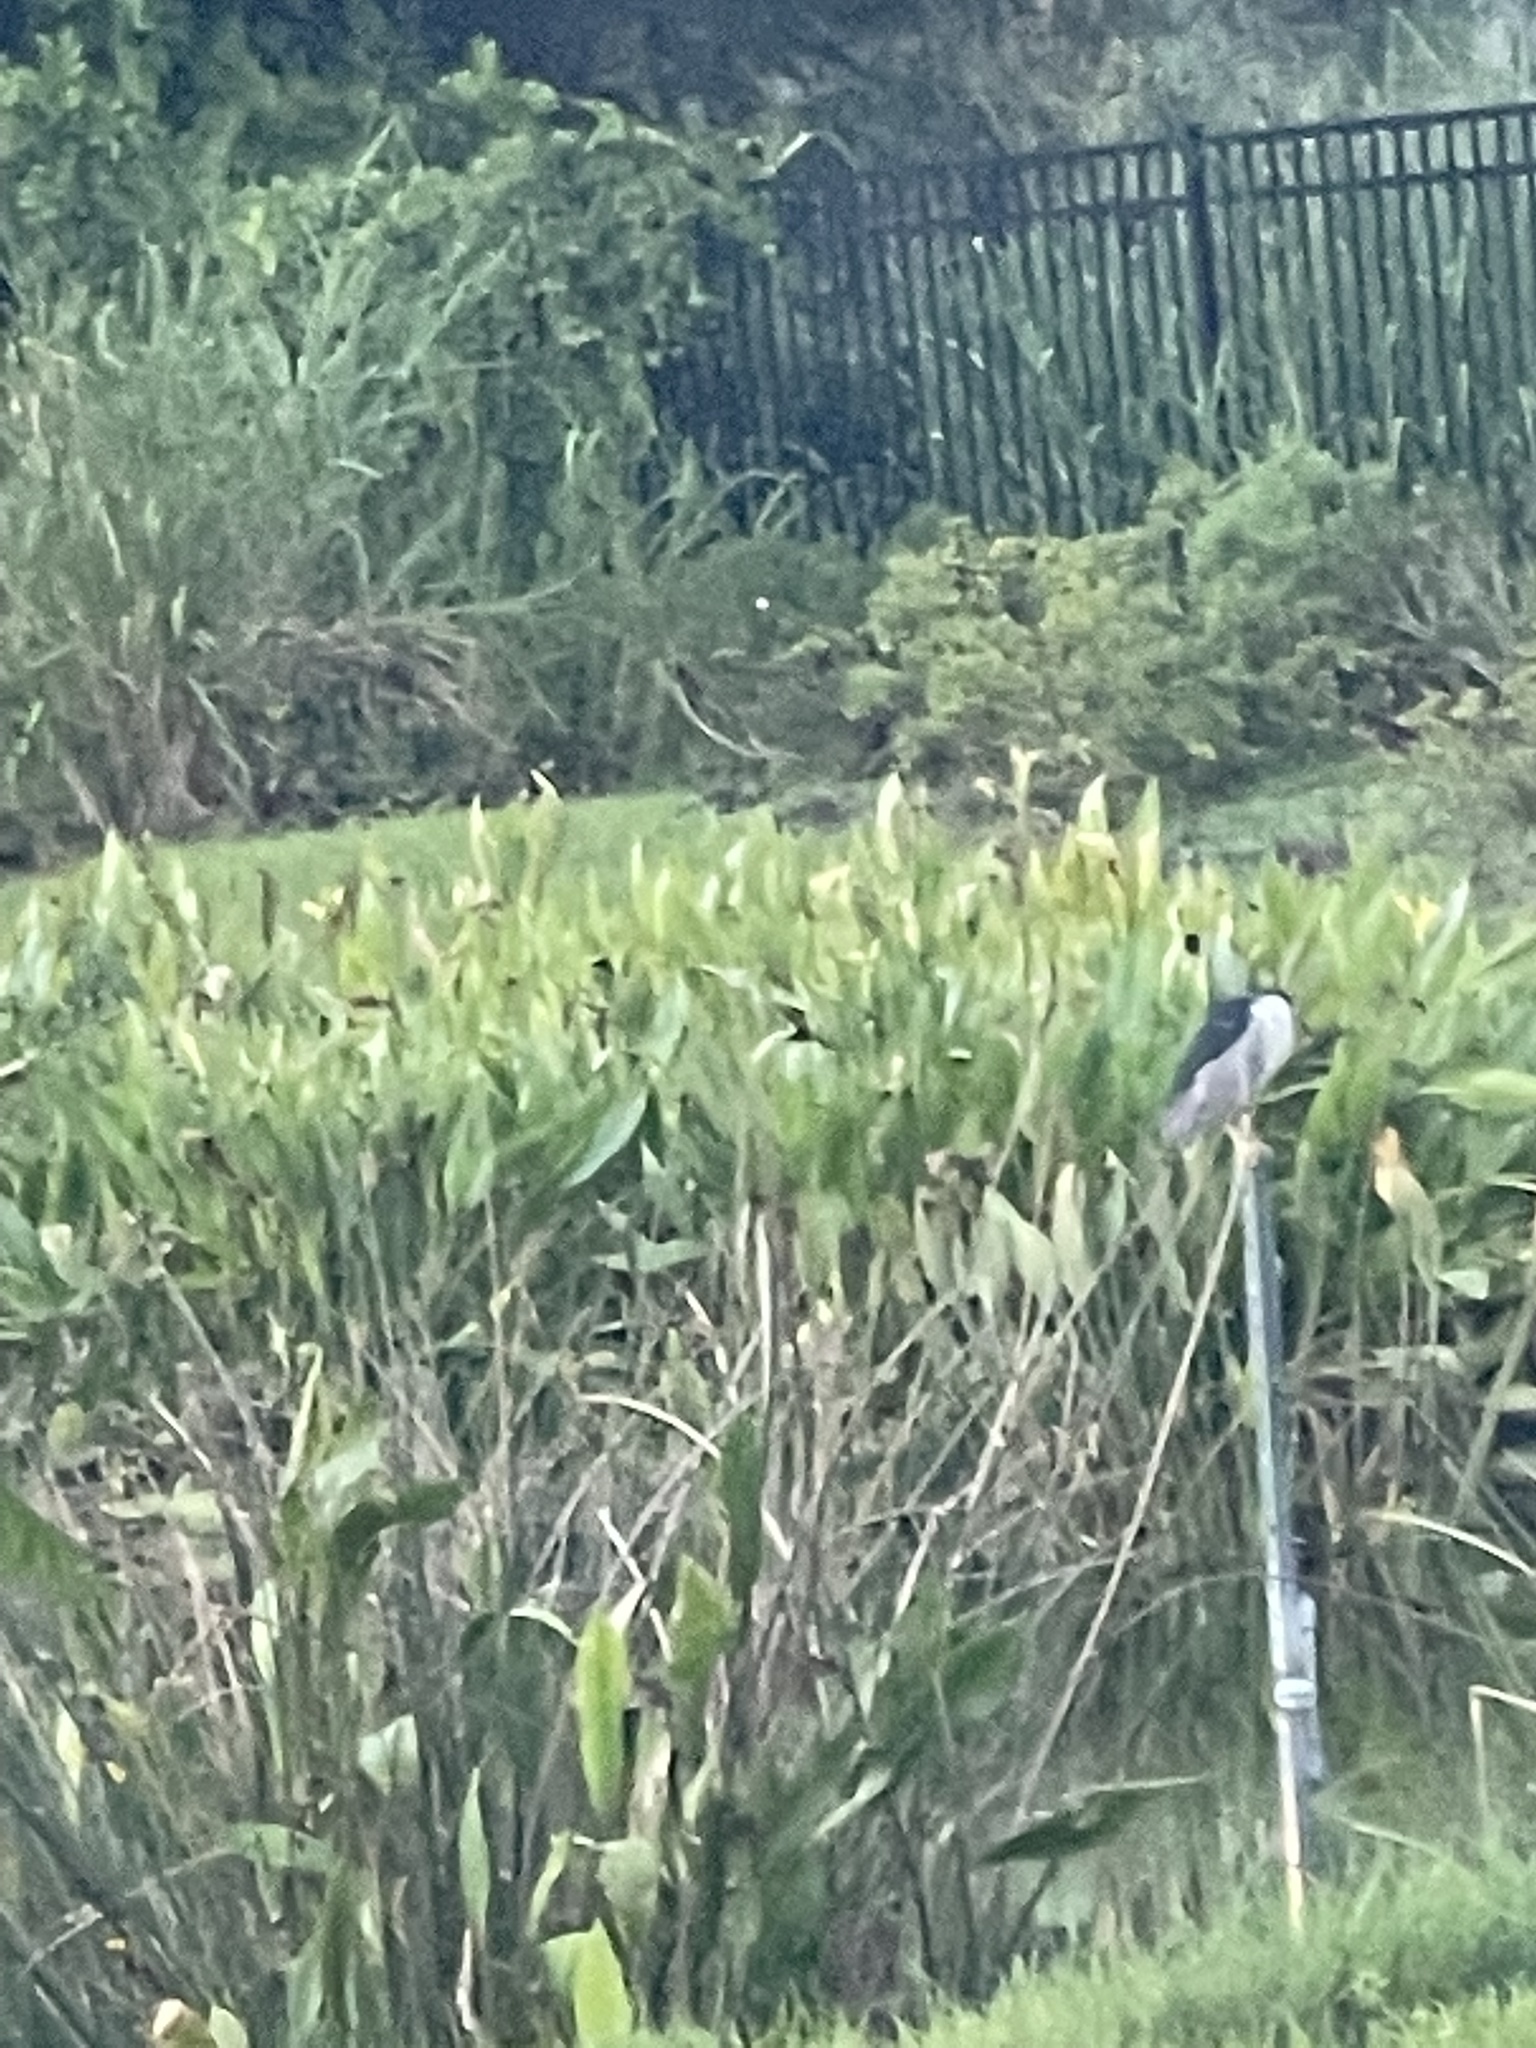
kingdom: Animalia
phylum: Chordata
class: Aves
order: Pelecaniformes
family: Ardeidae
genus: Nycticorax
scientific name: Nycticorax nycticorax
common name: Black-crowned night heron
